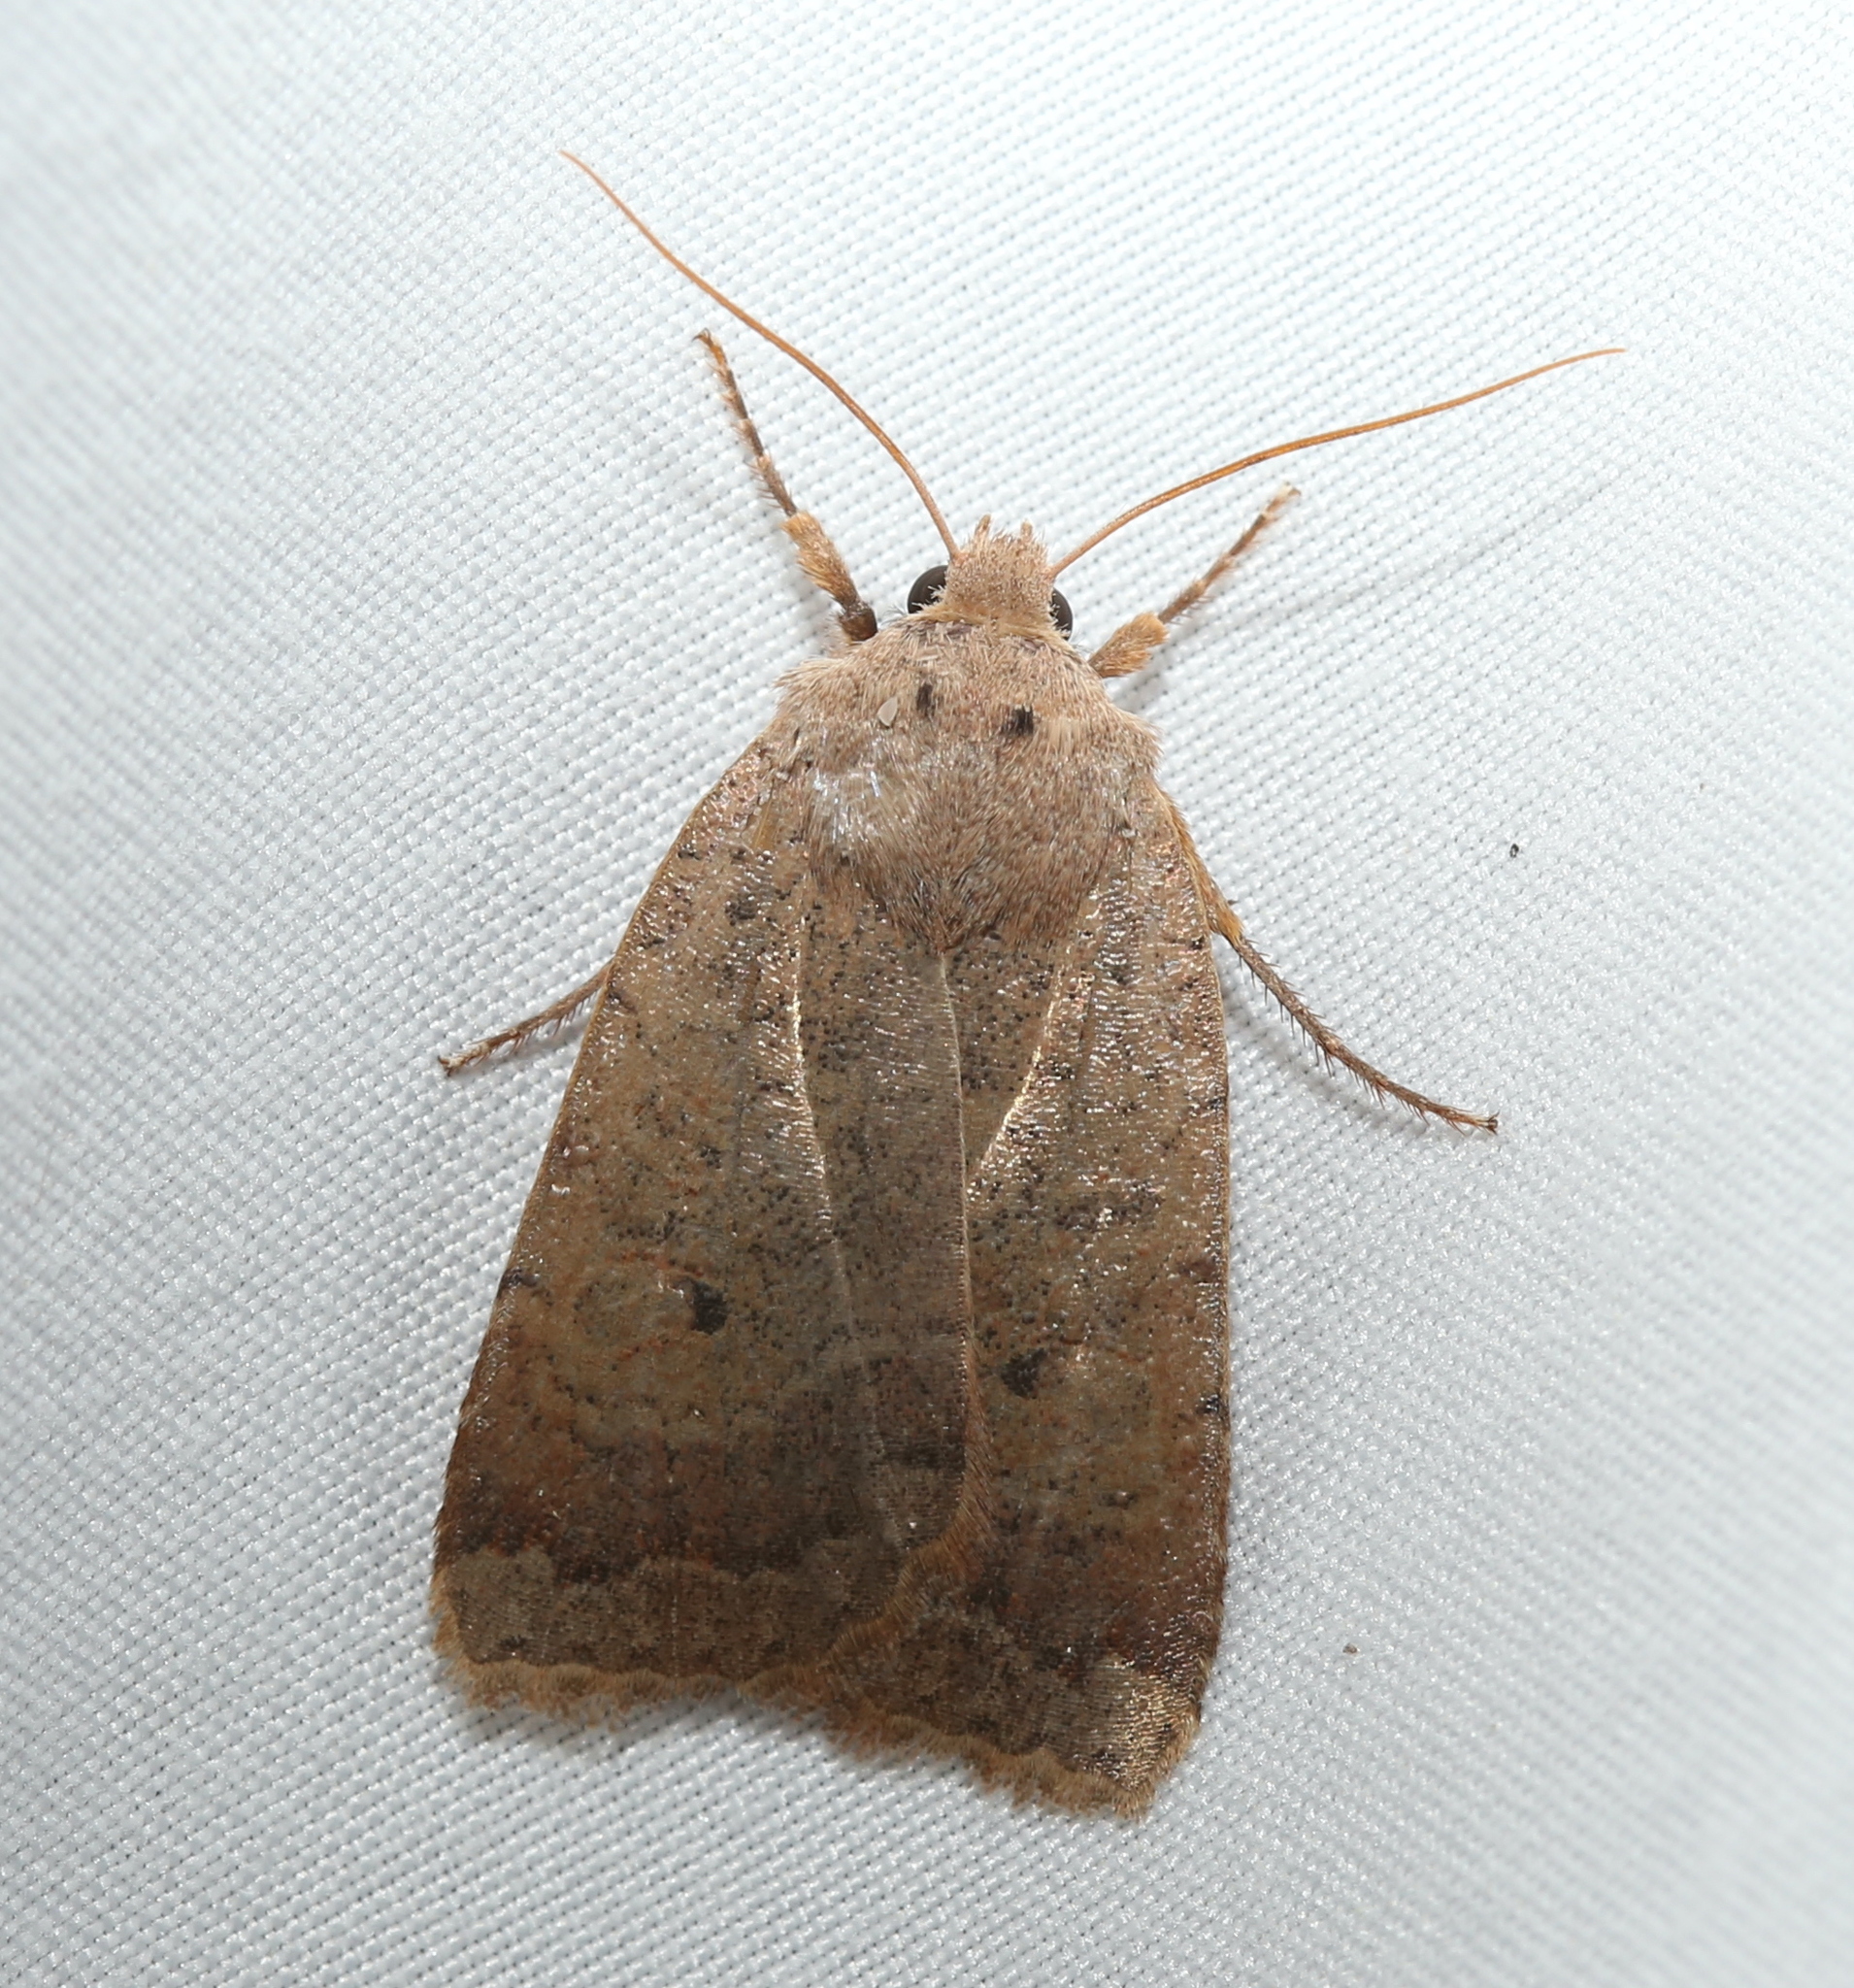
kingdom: Animalia
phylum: Arthropoda
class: Insecta
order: Lepidoptera
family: Noctuidae
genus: Sericaglaea
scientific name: Sericaglaea signata
